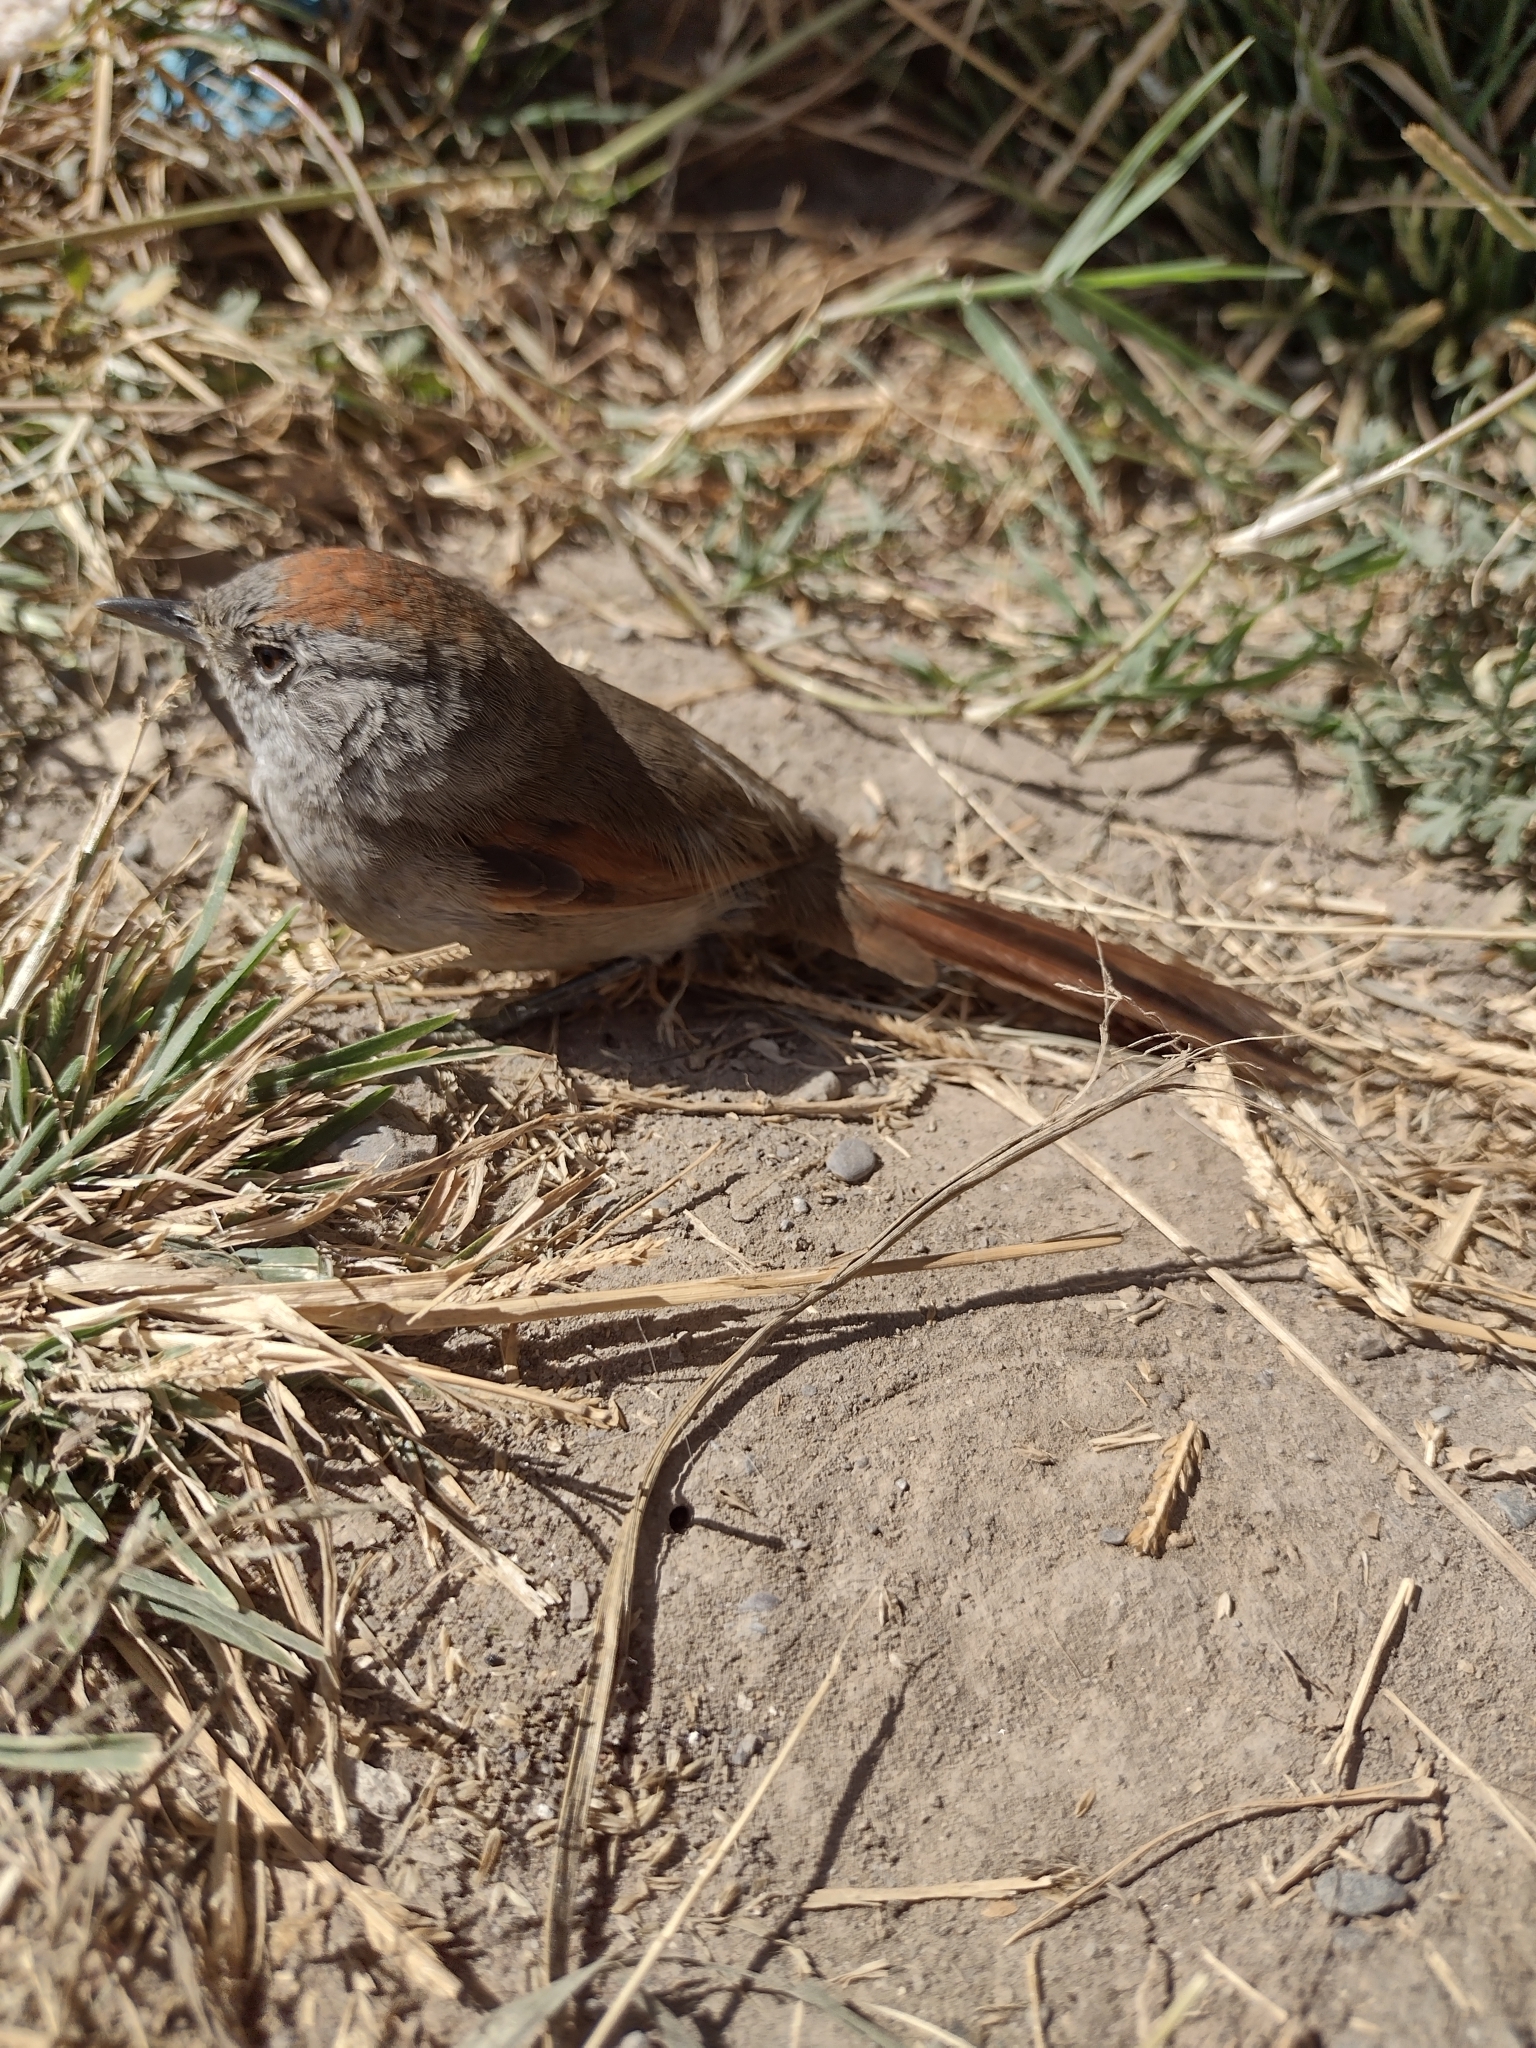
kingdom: Animalia
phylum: Chordata
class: Aves
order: Passeriformes
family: Furnariidae
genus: Synallaxis
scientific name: Synallaxis frontalis
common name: Sooty-fronted spinetail
